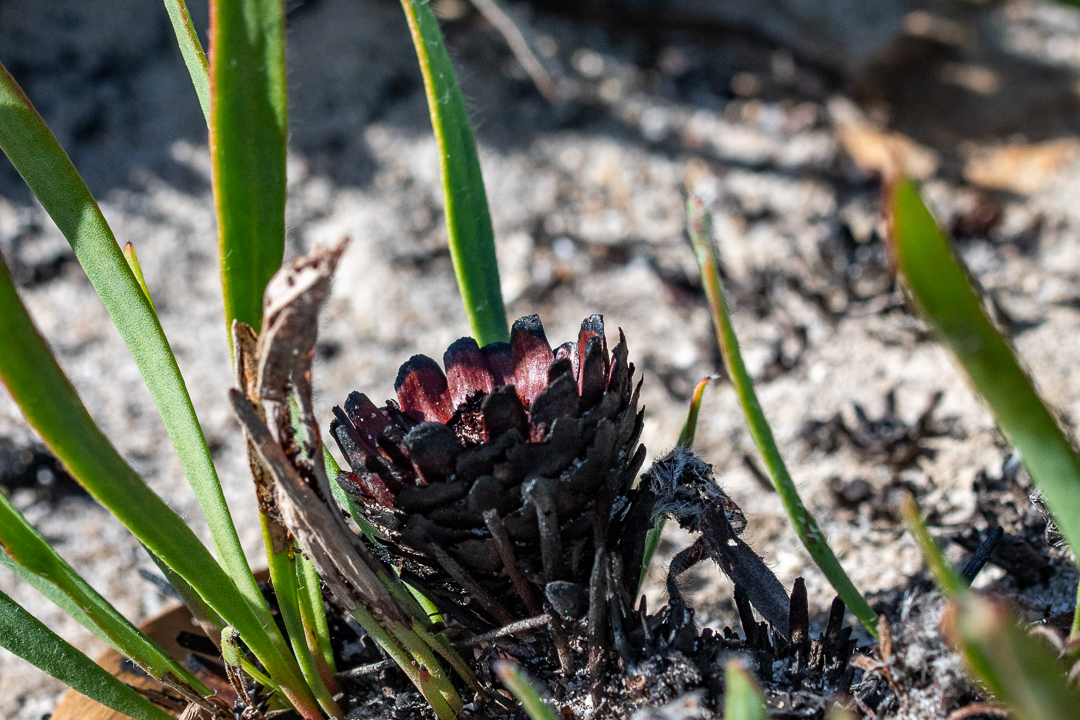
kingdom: Plantae
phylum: Tracheophyta
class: Magnoliopsida
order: Proteales
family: Proteaceae
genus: Protea
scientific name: Protea scabra
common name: Sandpaper-leaf sugarbush
